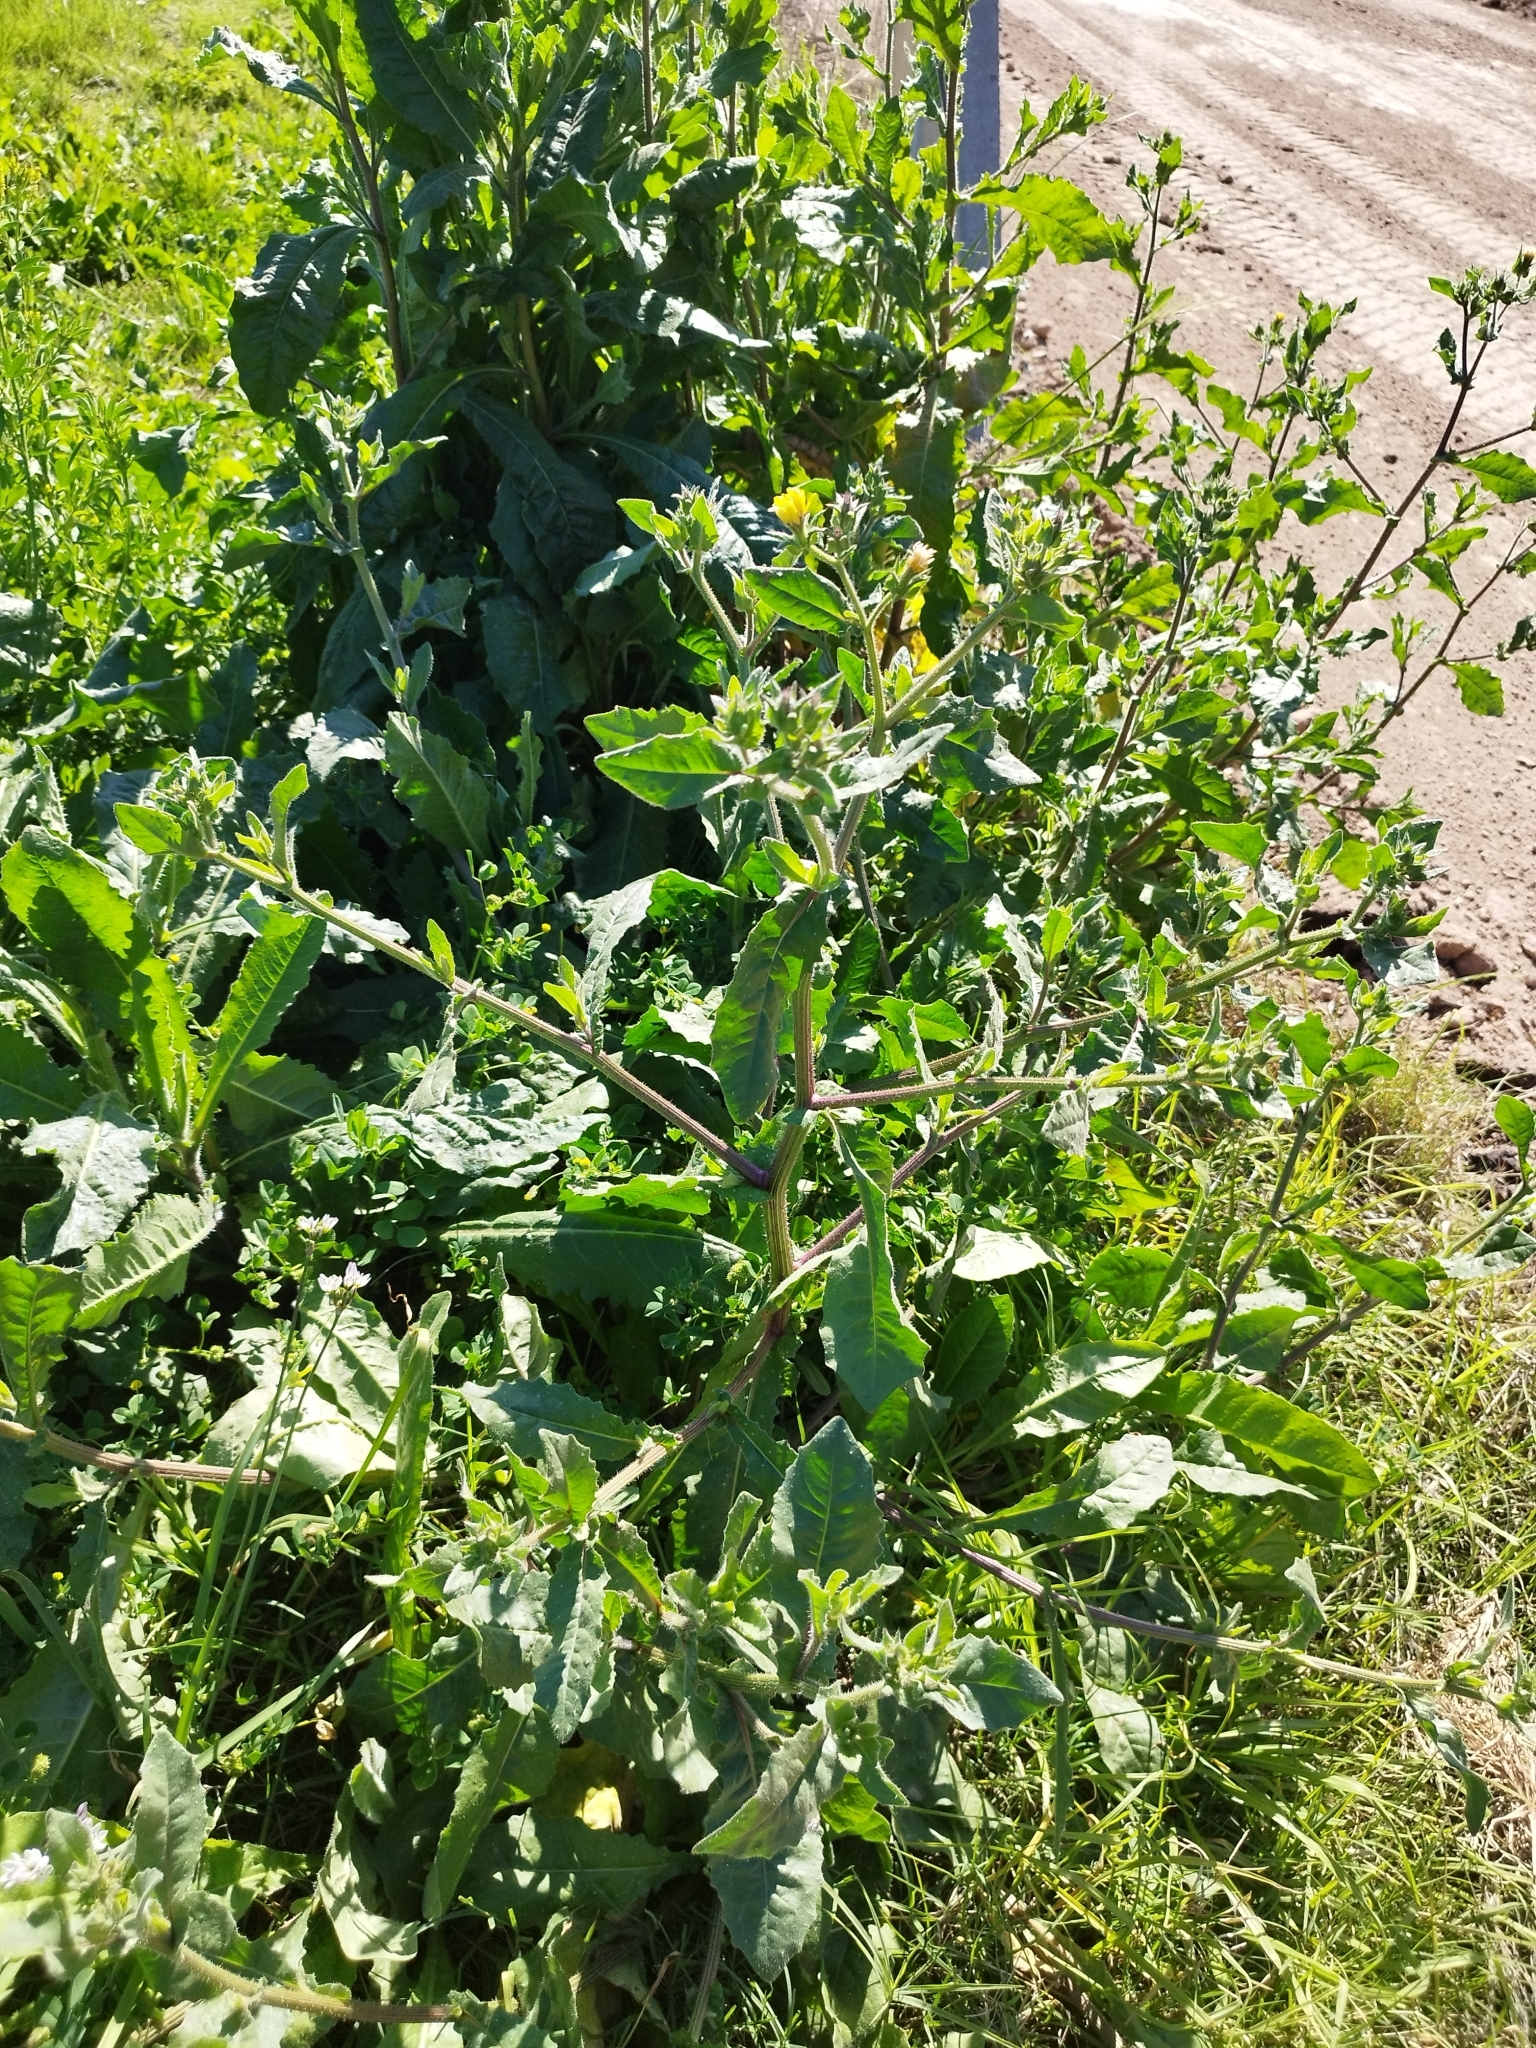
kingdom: Plantae
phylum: Tracheophyta
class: Magnoliopsida
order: Asterales
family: Asteraceae
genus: Helminthotheca
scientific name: Helminthotheca echioides
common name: Ox-tongue
